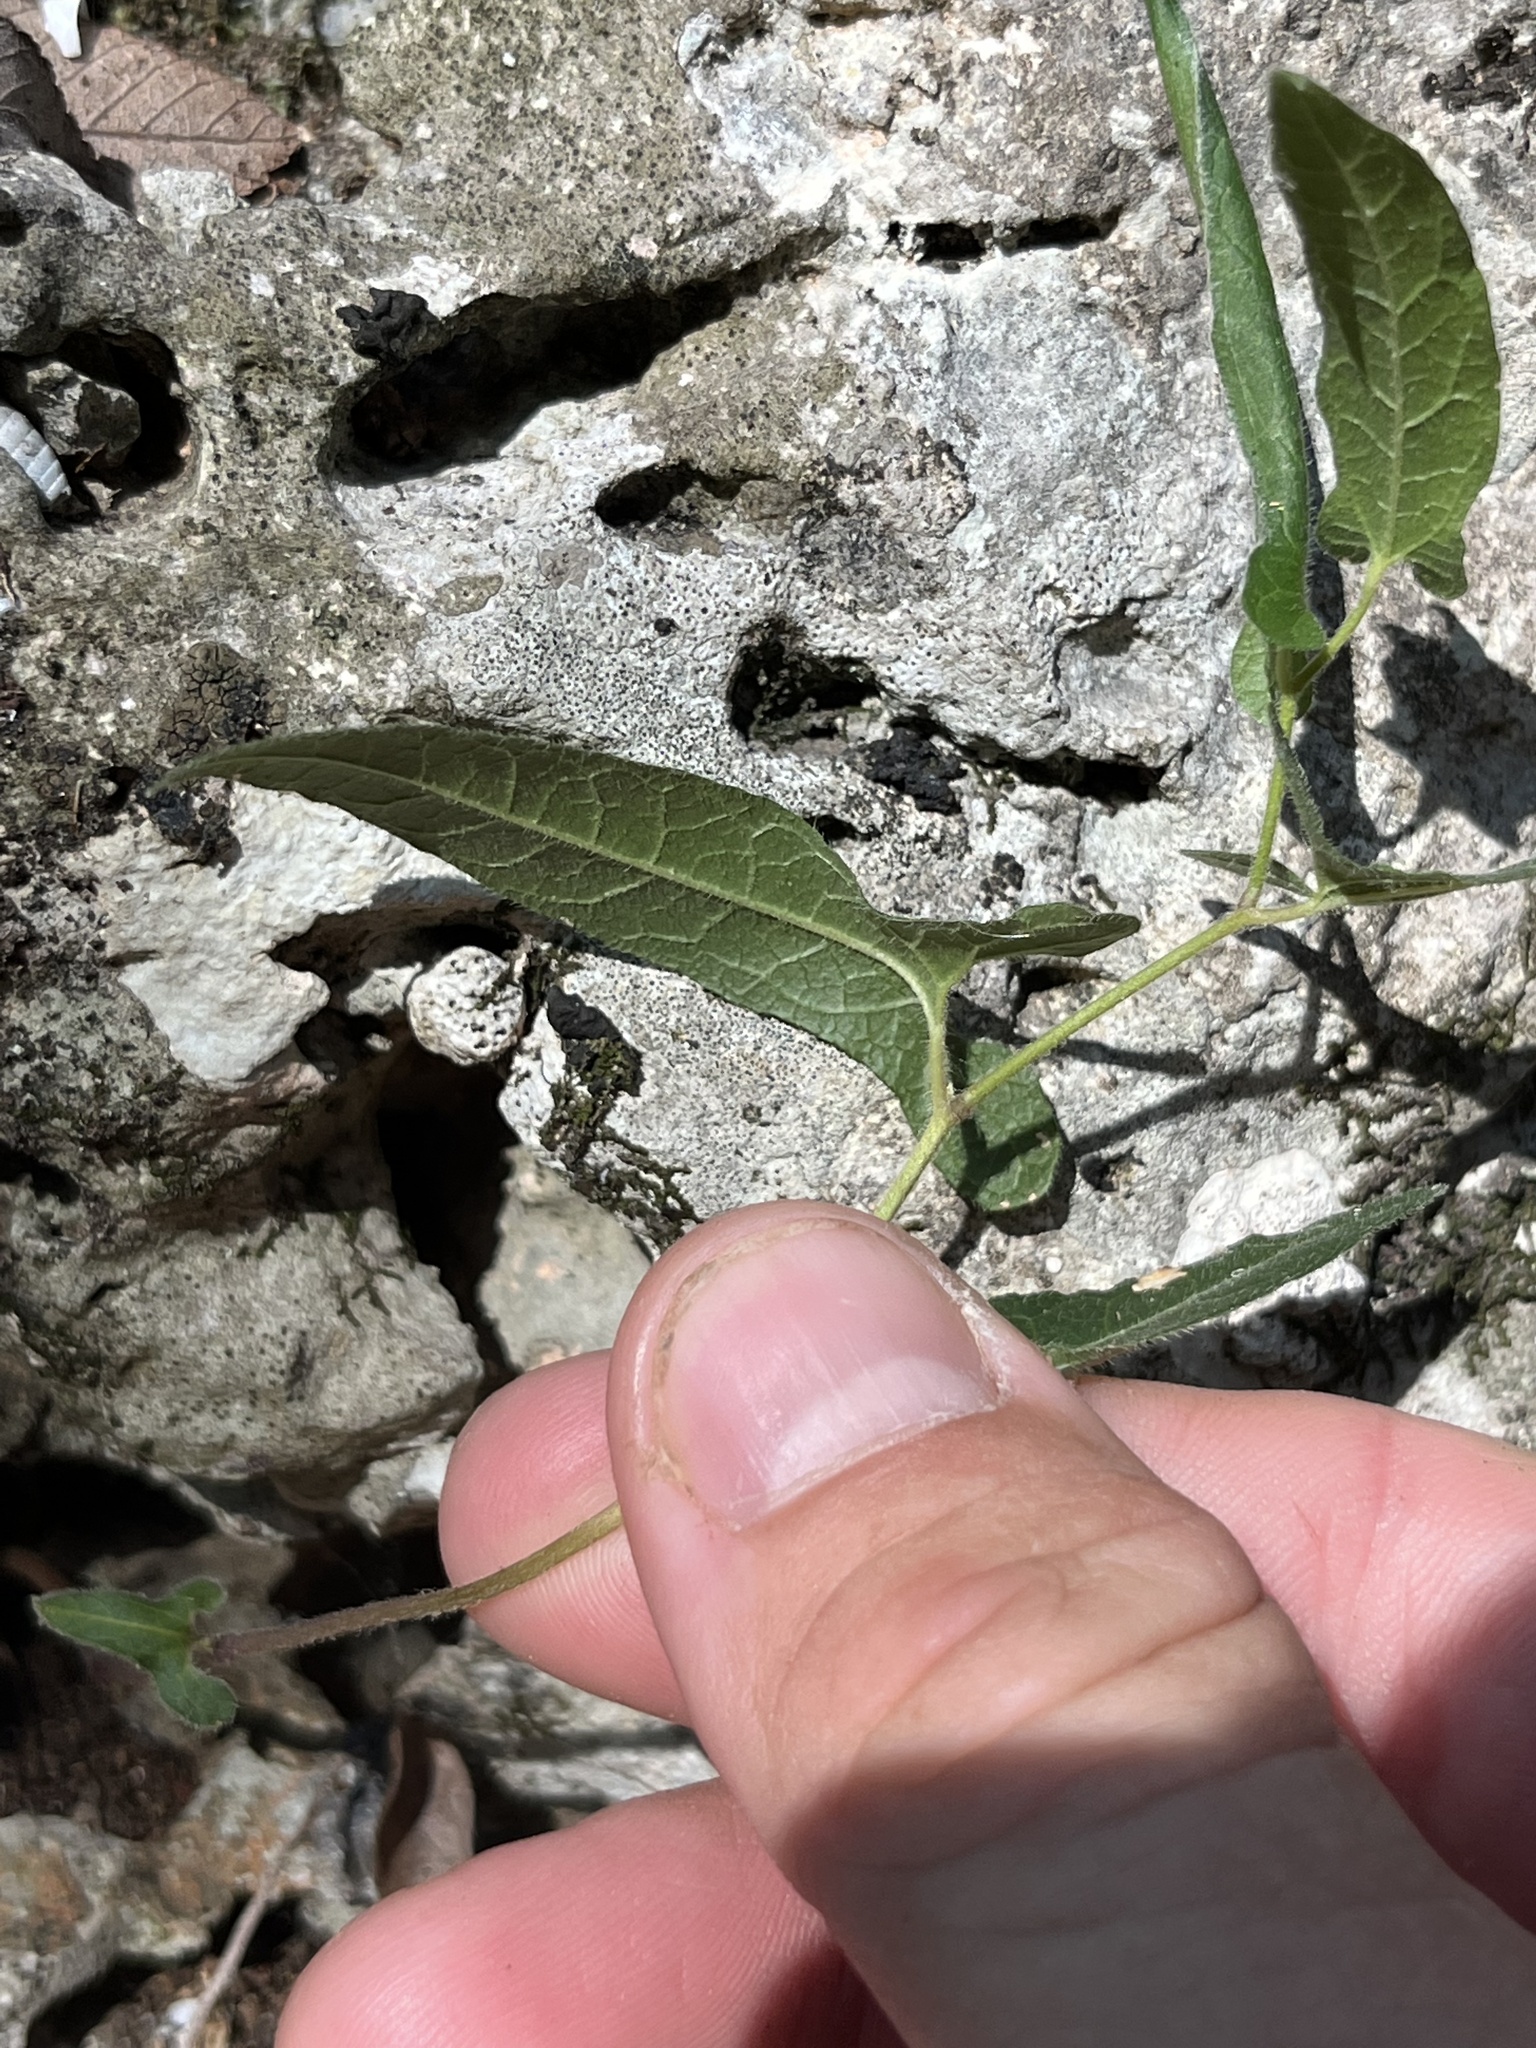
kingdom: Plantae
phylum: Tracheophyta
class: Magnoliopsida
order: Piperales
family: Aristolochiaceae
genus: Endodeca
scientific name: Endodeca serpentaria
